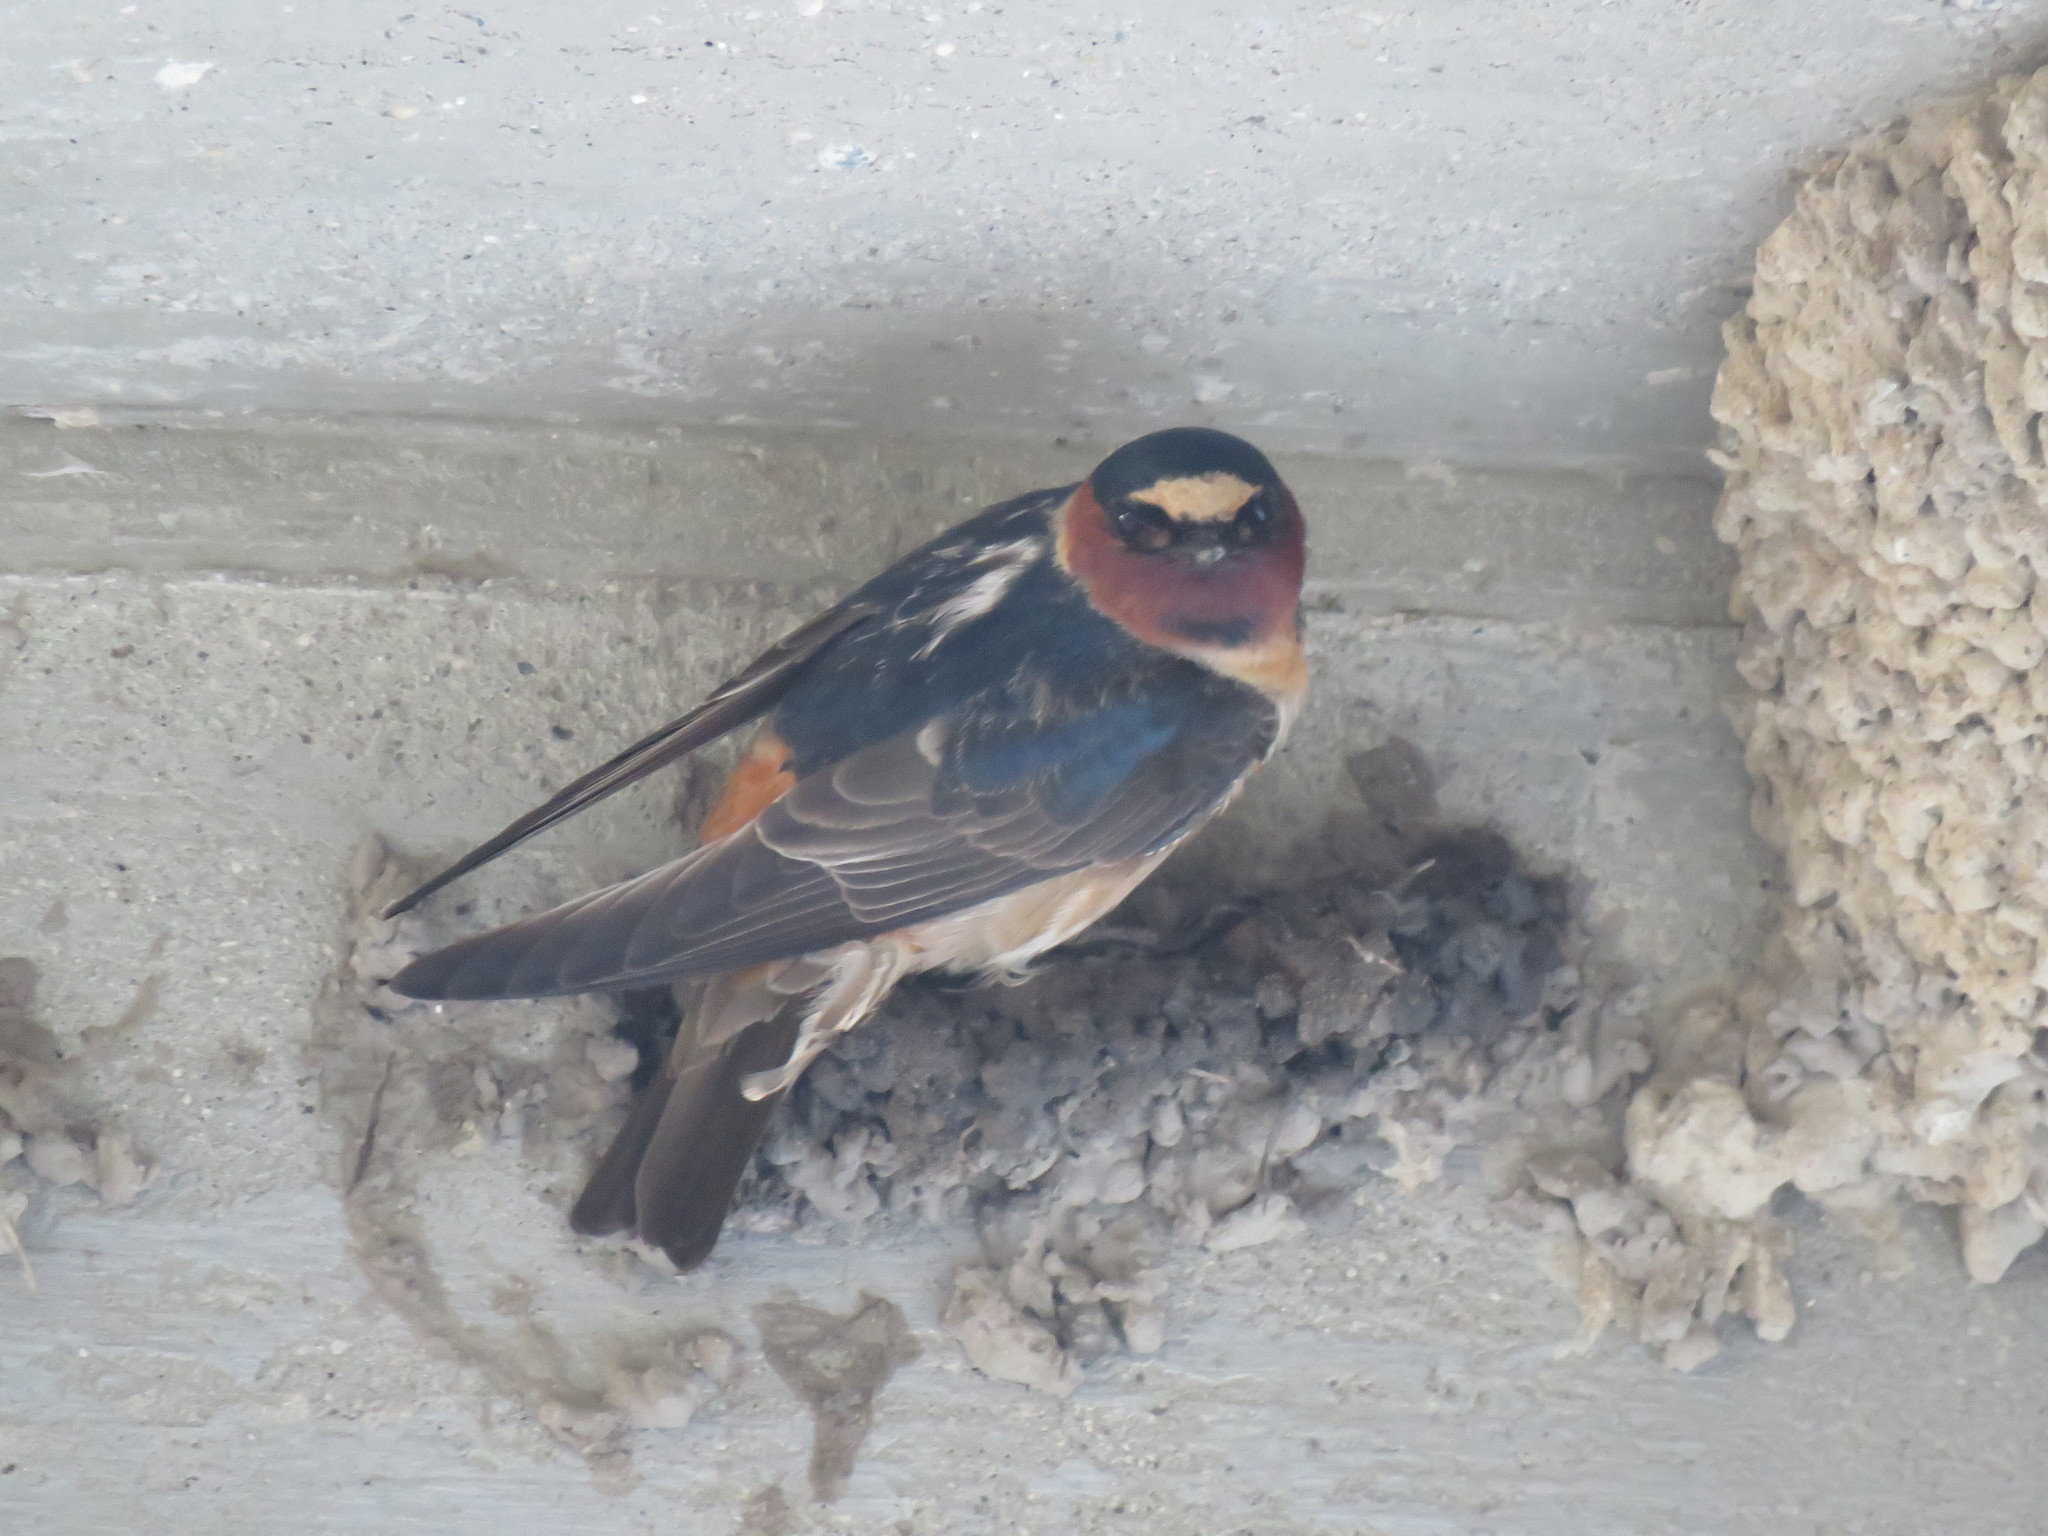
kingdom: Animalia
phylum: Chordata
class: Aves
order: Passeriformes
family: Hirundinidae
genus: Petrochelidon
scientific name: Petrochelidon pyrrhonota
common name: American cliff swallow
